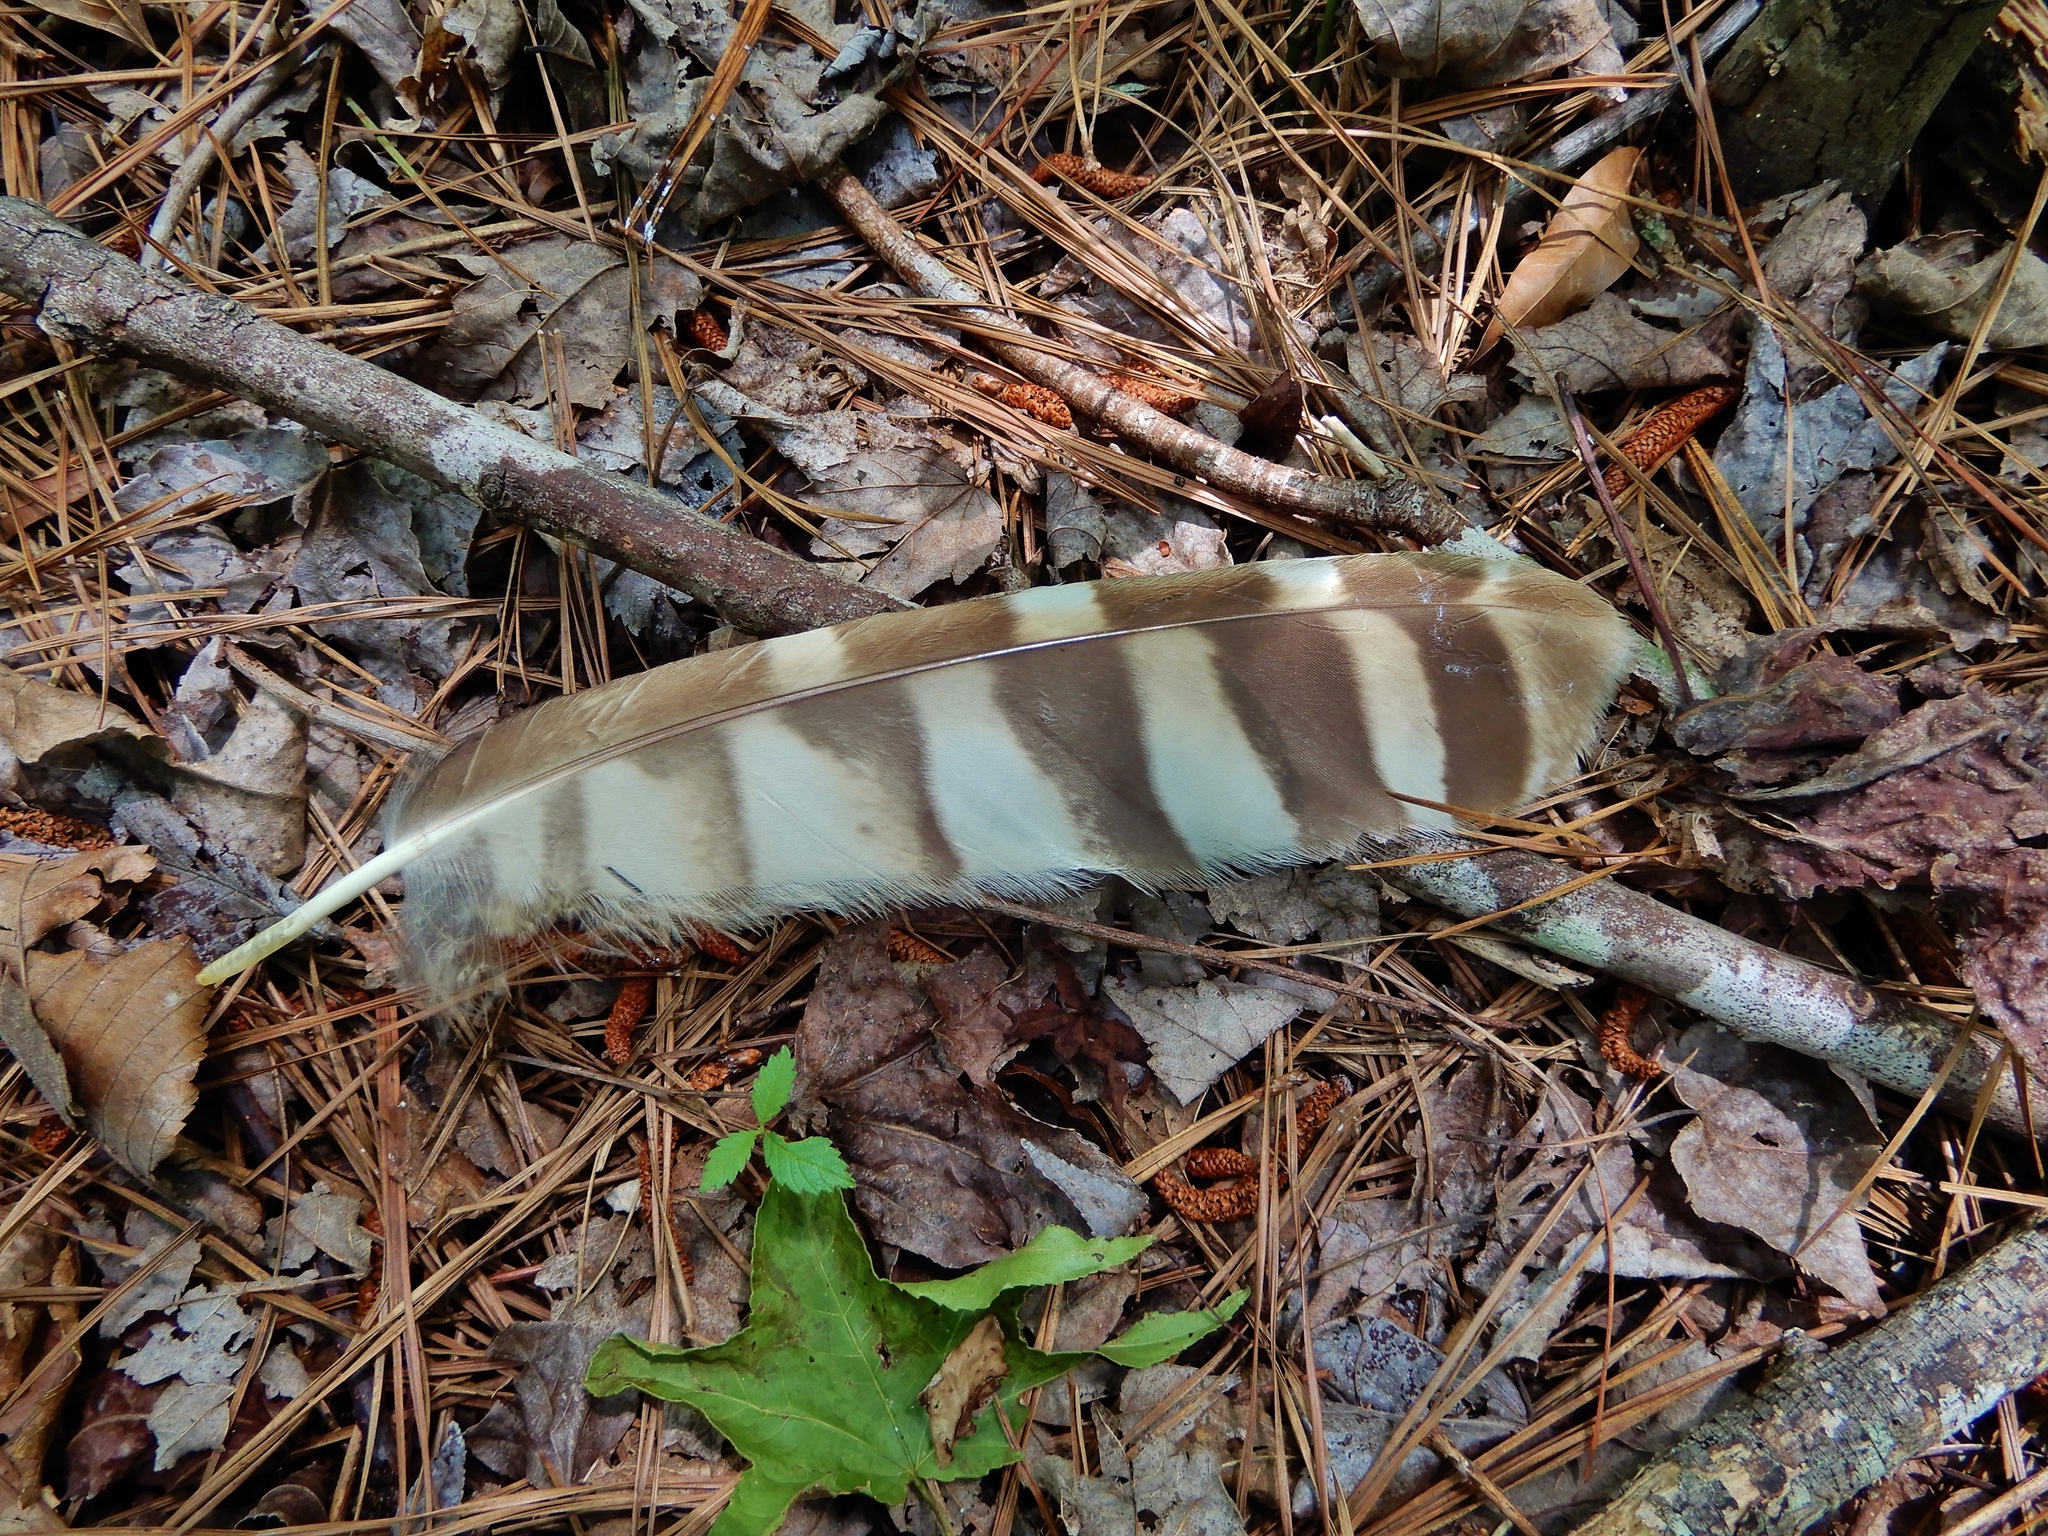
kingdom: Animalia
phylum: Chordata
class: Aves
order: Strigiformes
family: Strigidae
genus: Strix
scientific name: Strix varia
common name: Barred owl
